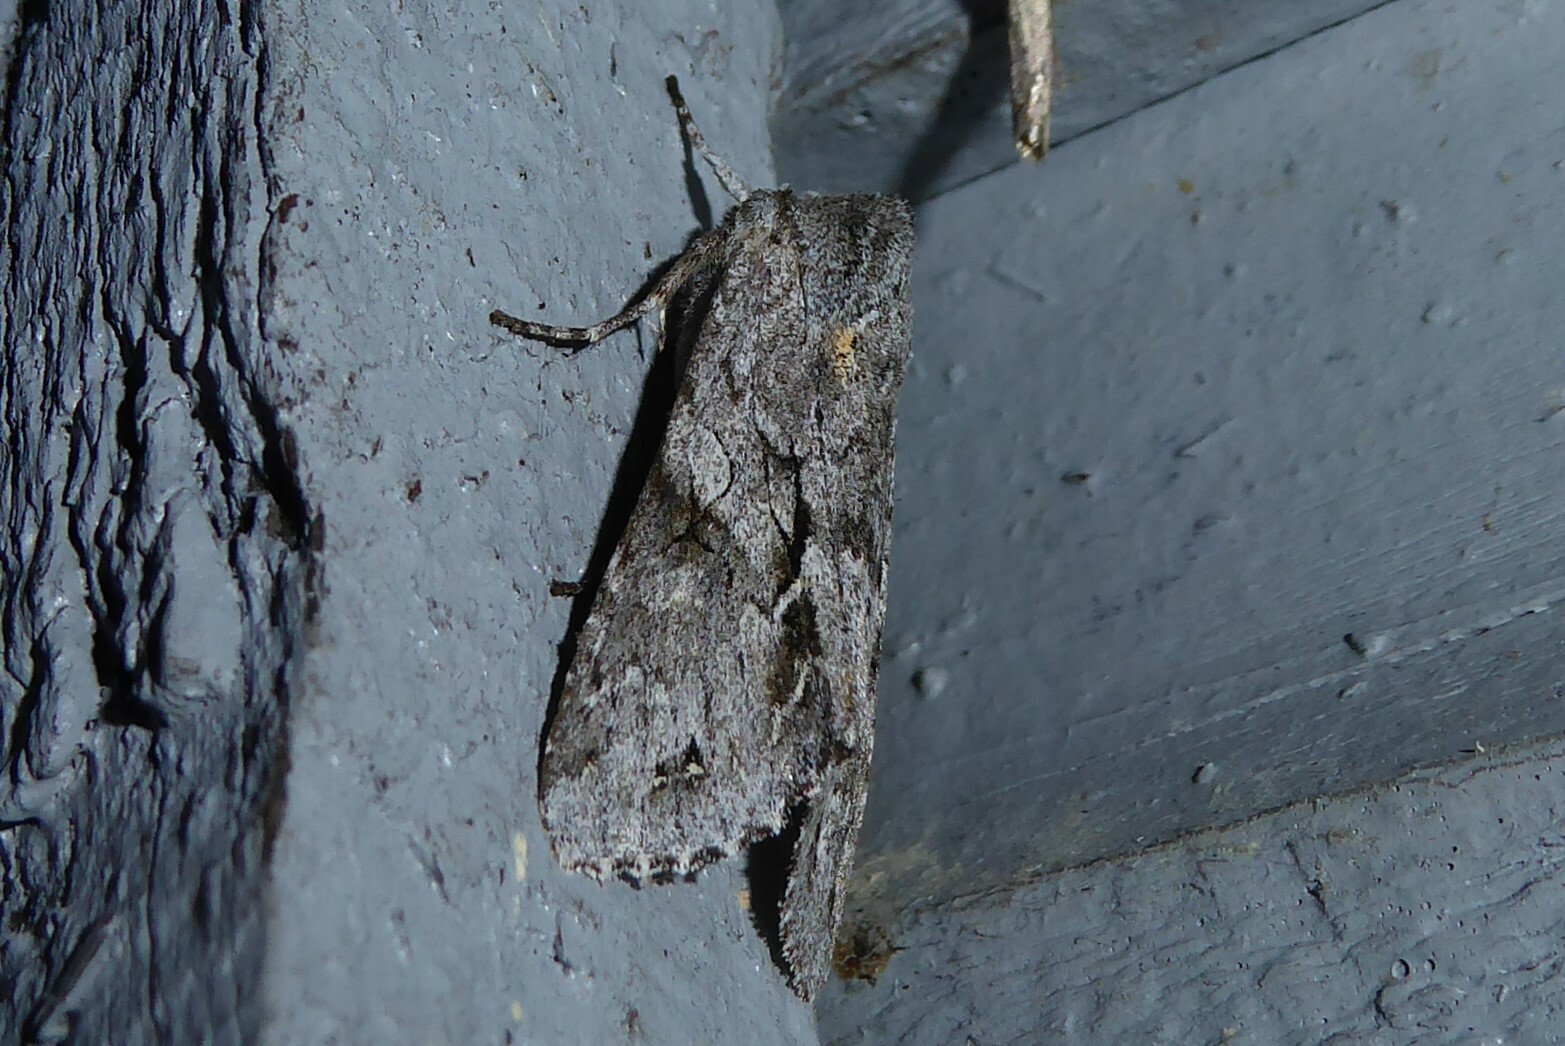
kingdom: Animalia
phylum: Arthropoda
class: Insecta
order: Lepidoptera
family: Noctuidae
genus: Ichneutica
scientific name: Ichneutica
